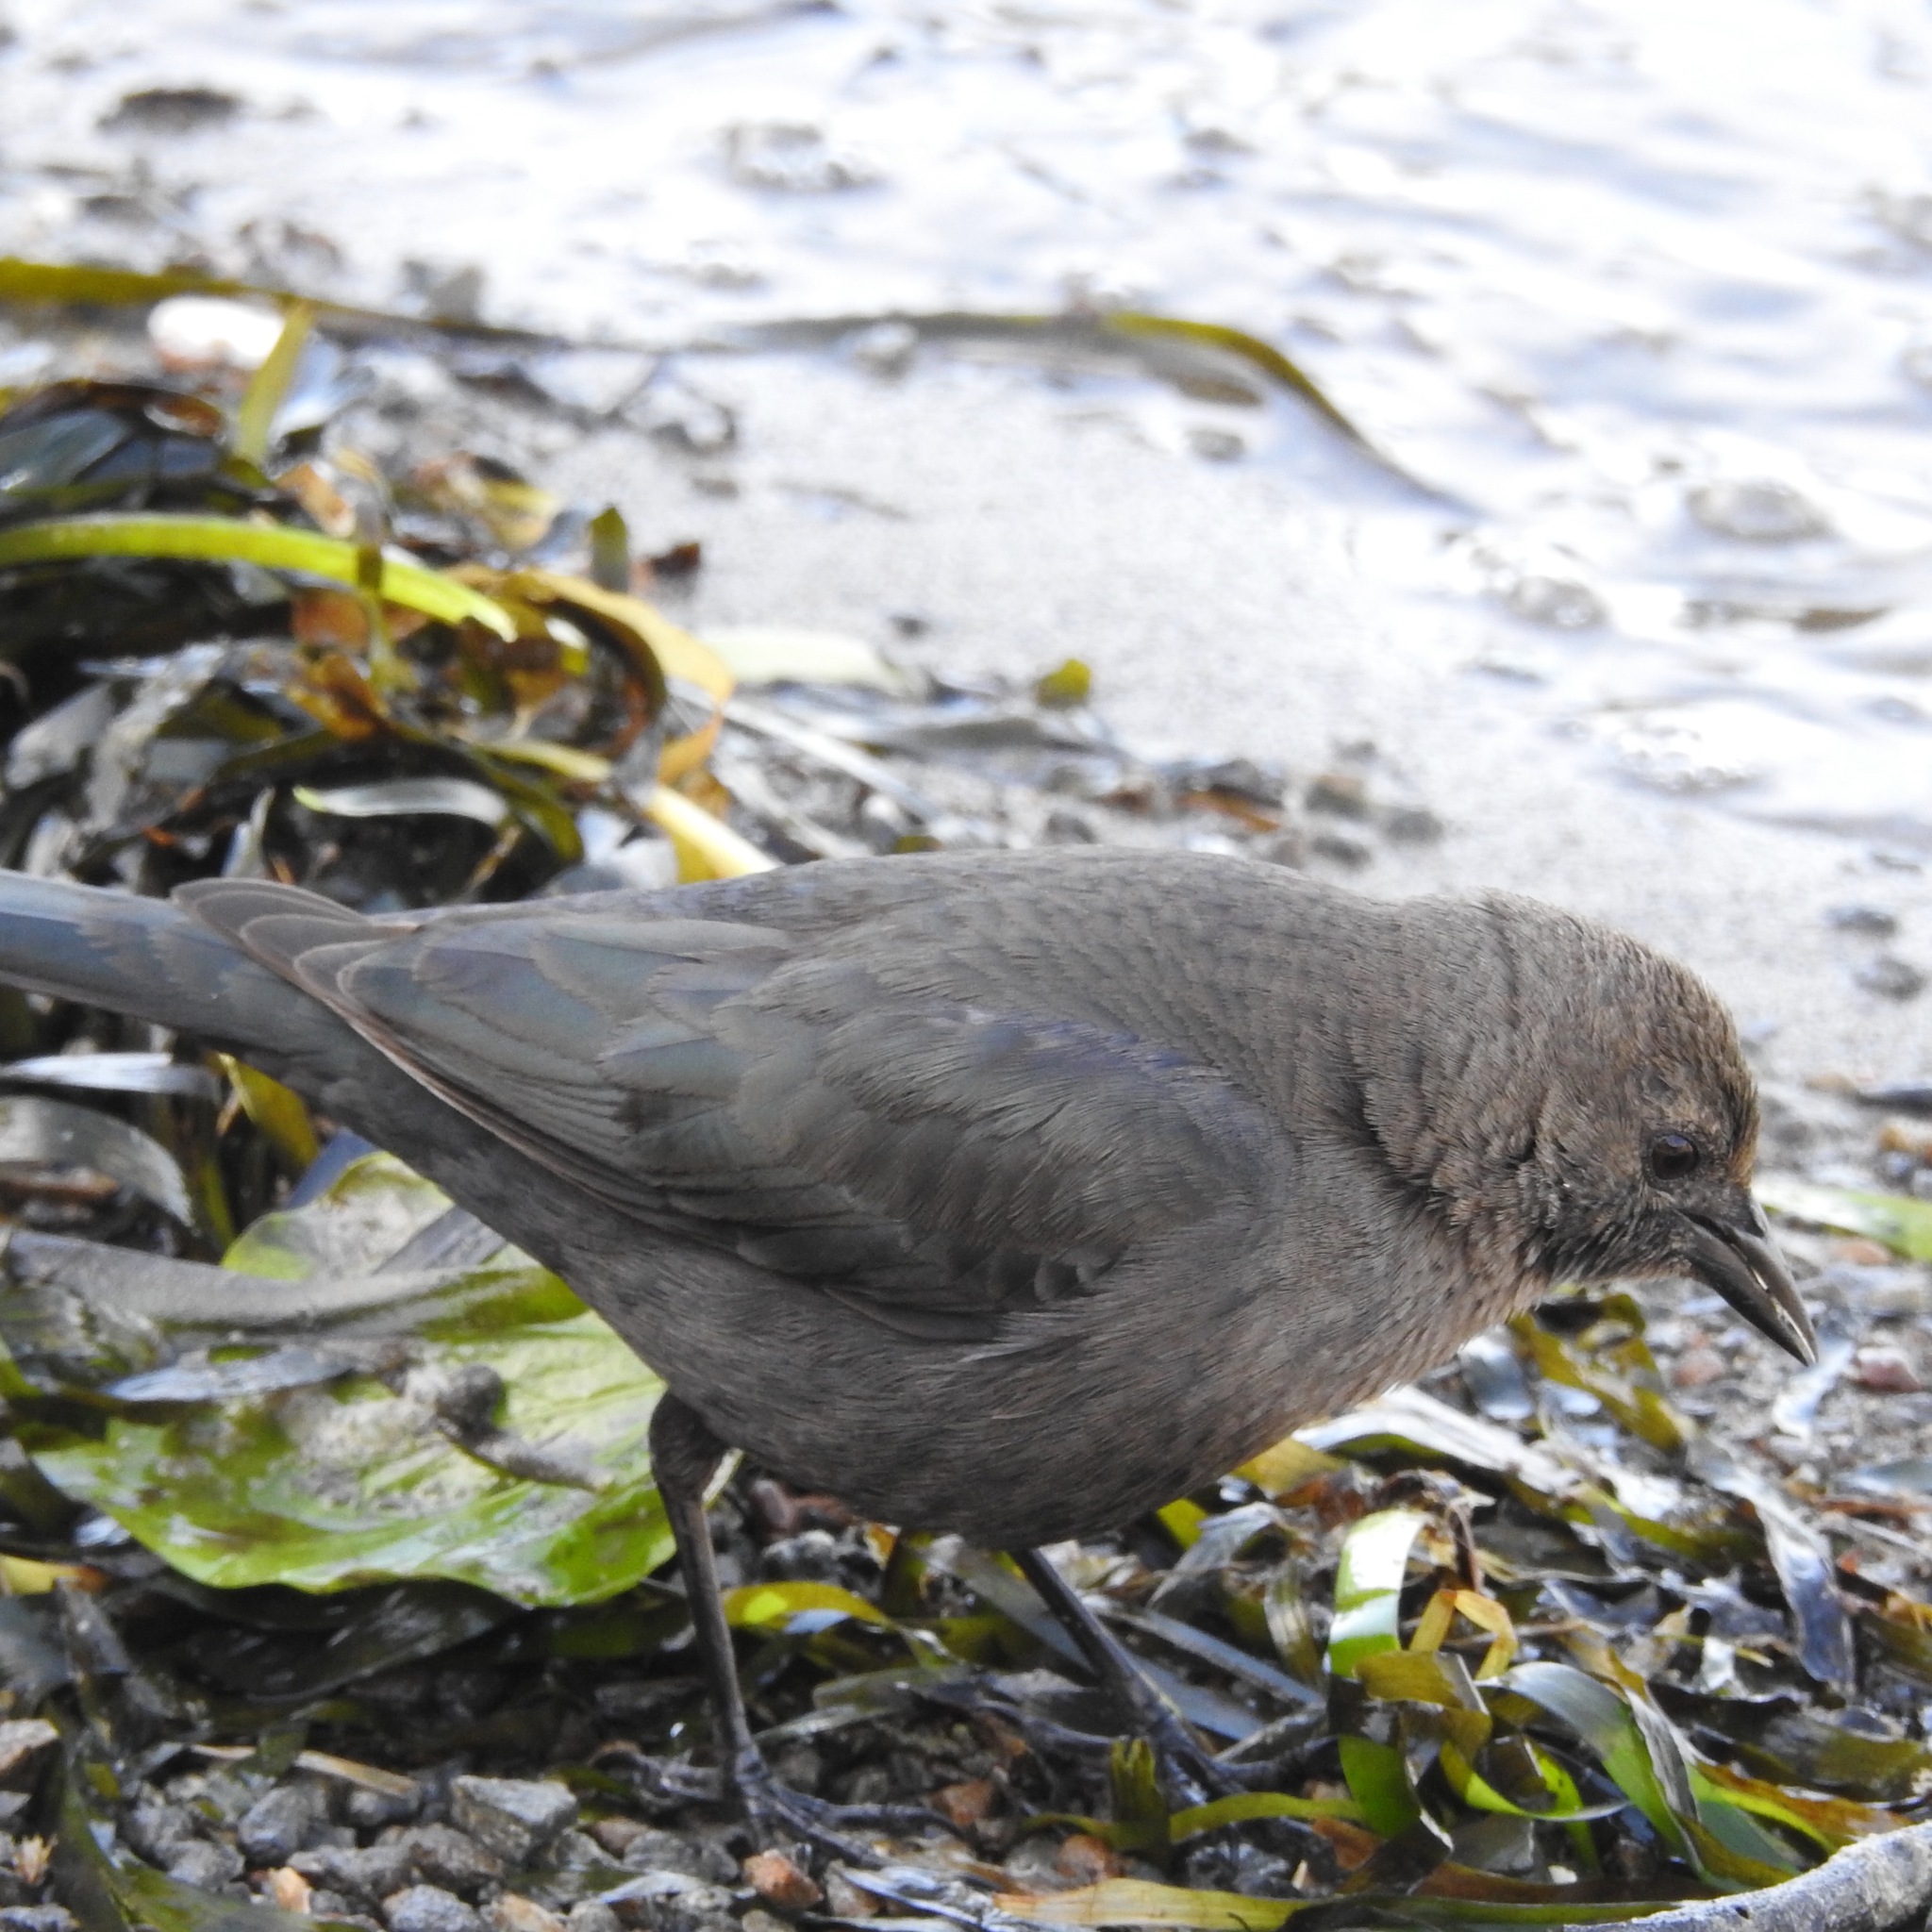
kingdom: Animalia
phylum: Chordata
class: Aves
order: Passeriformes
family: Icteridae
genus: Euphagus
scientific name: Euphagus cyanocephalus
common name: Brewer's blackbird
